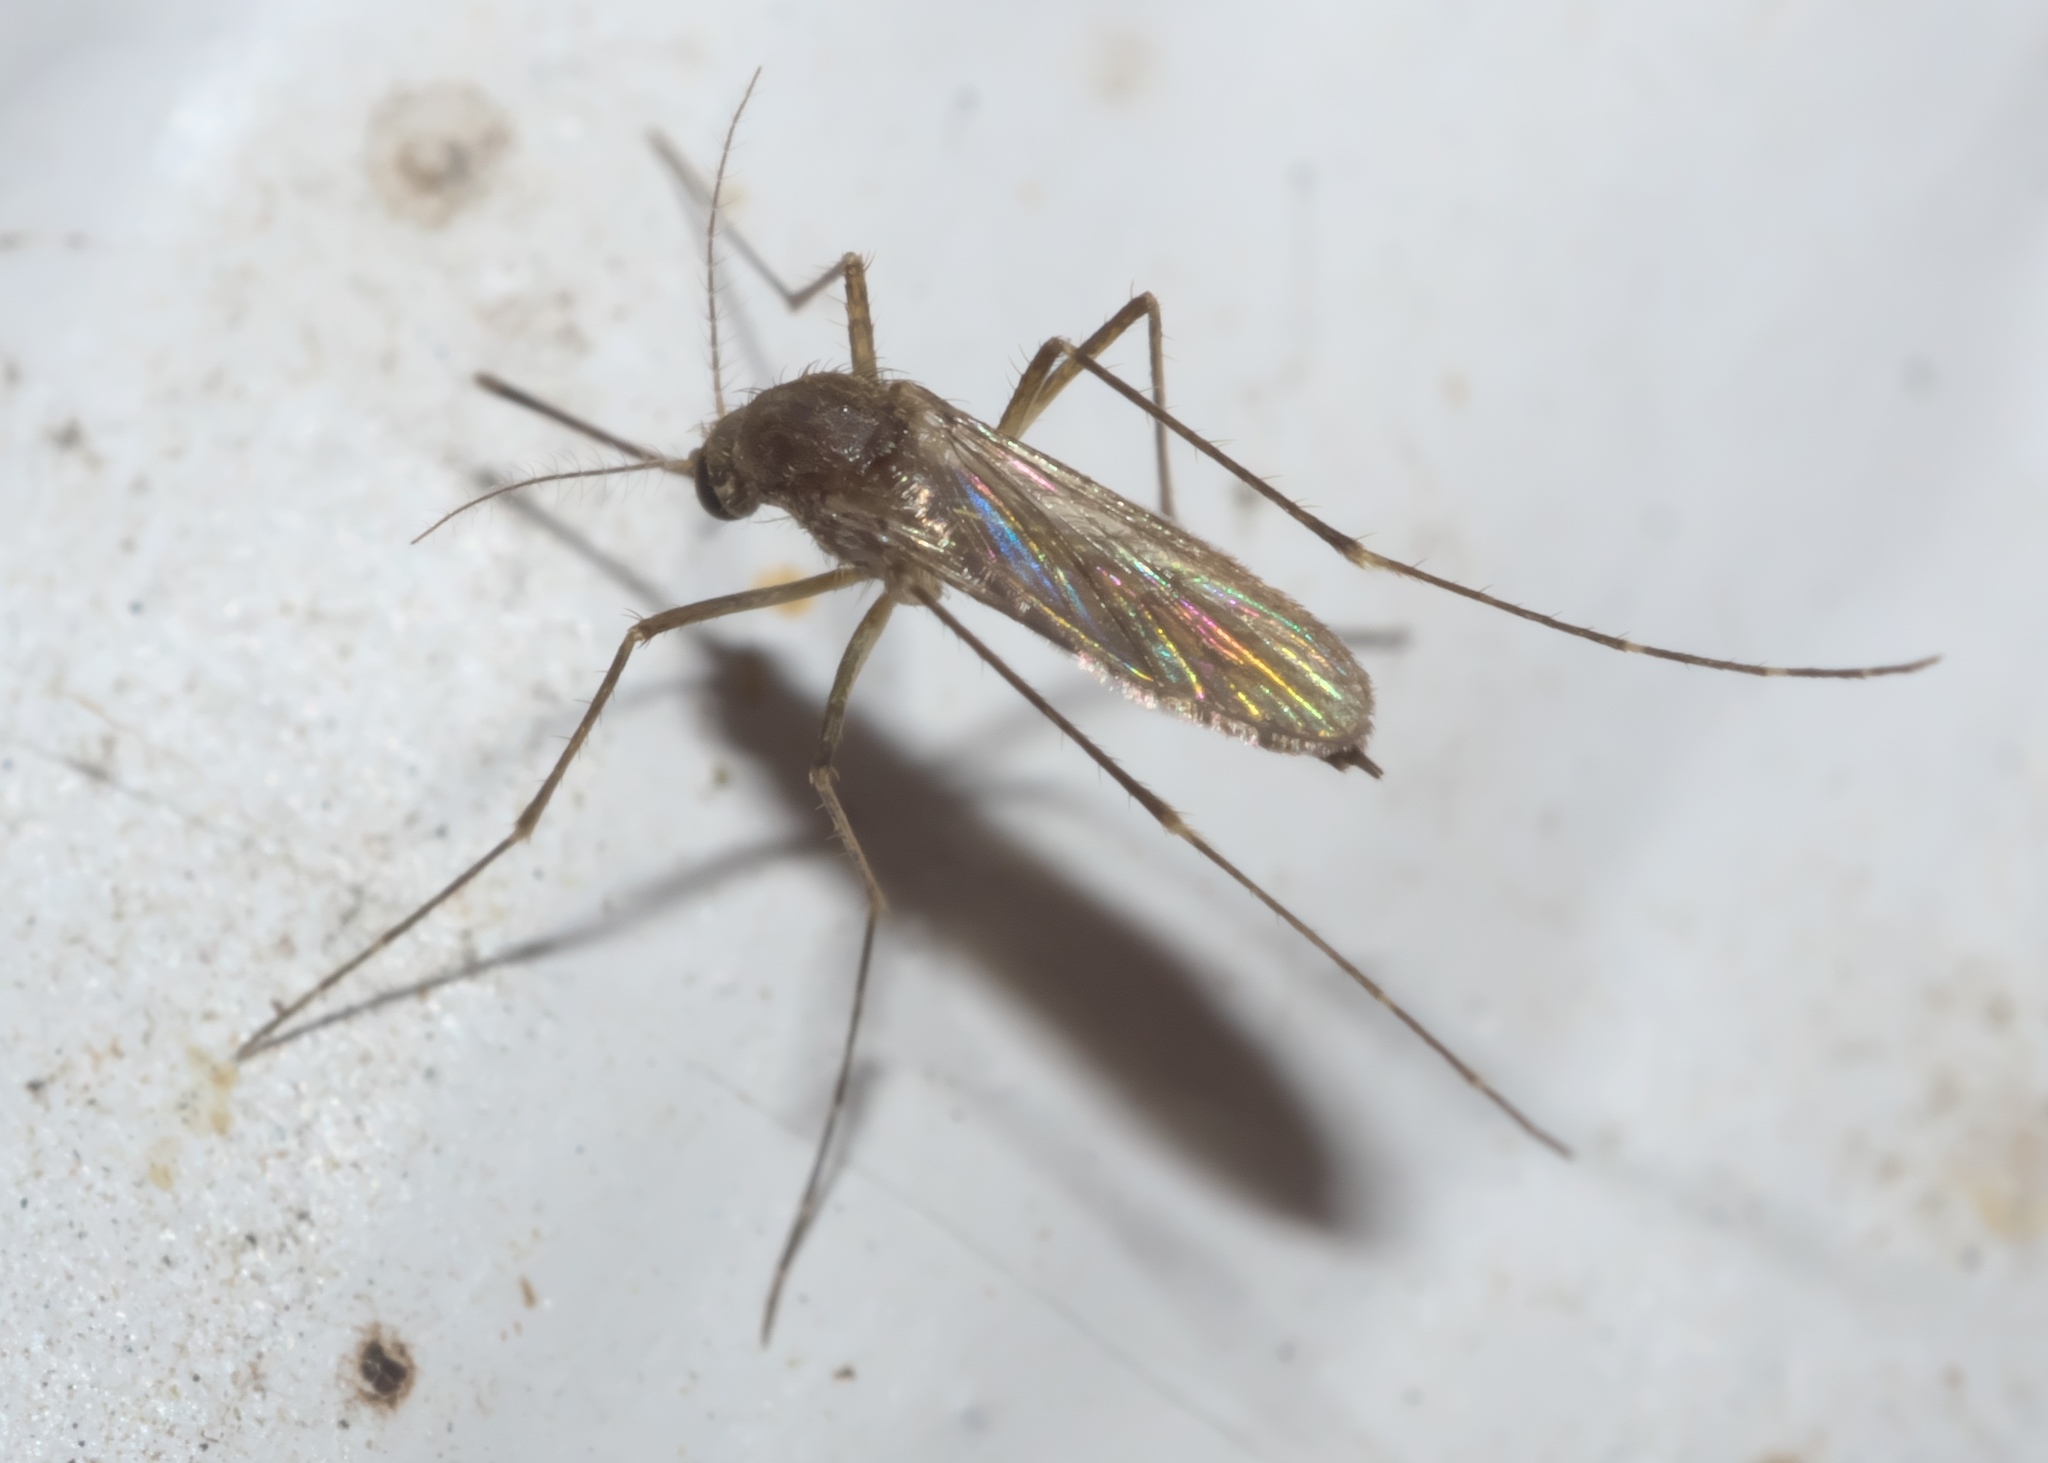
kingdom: Animalia
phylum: Arthropoda
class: Insecta
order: Diptera
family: Culicidae
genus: Aedes
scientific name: Aedes vexans
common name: Inland floodwater mosquito
